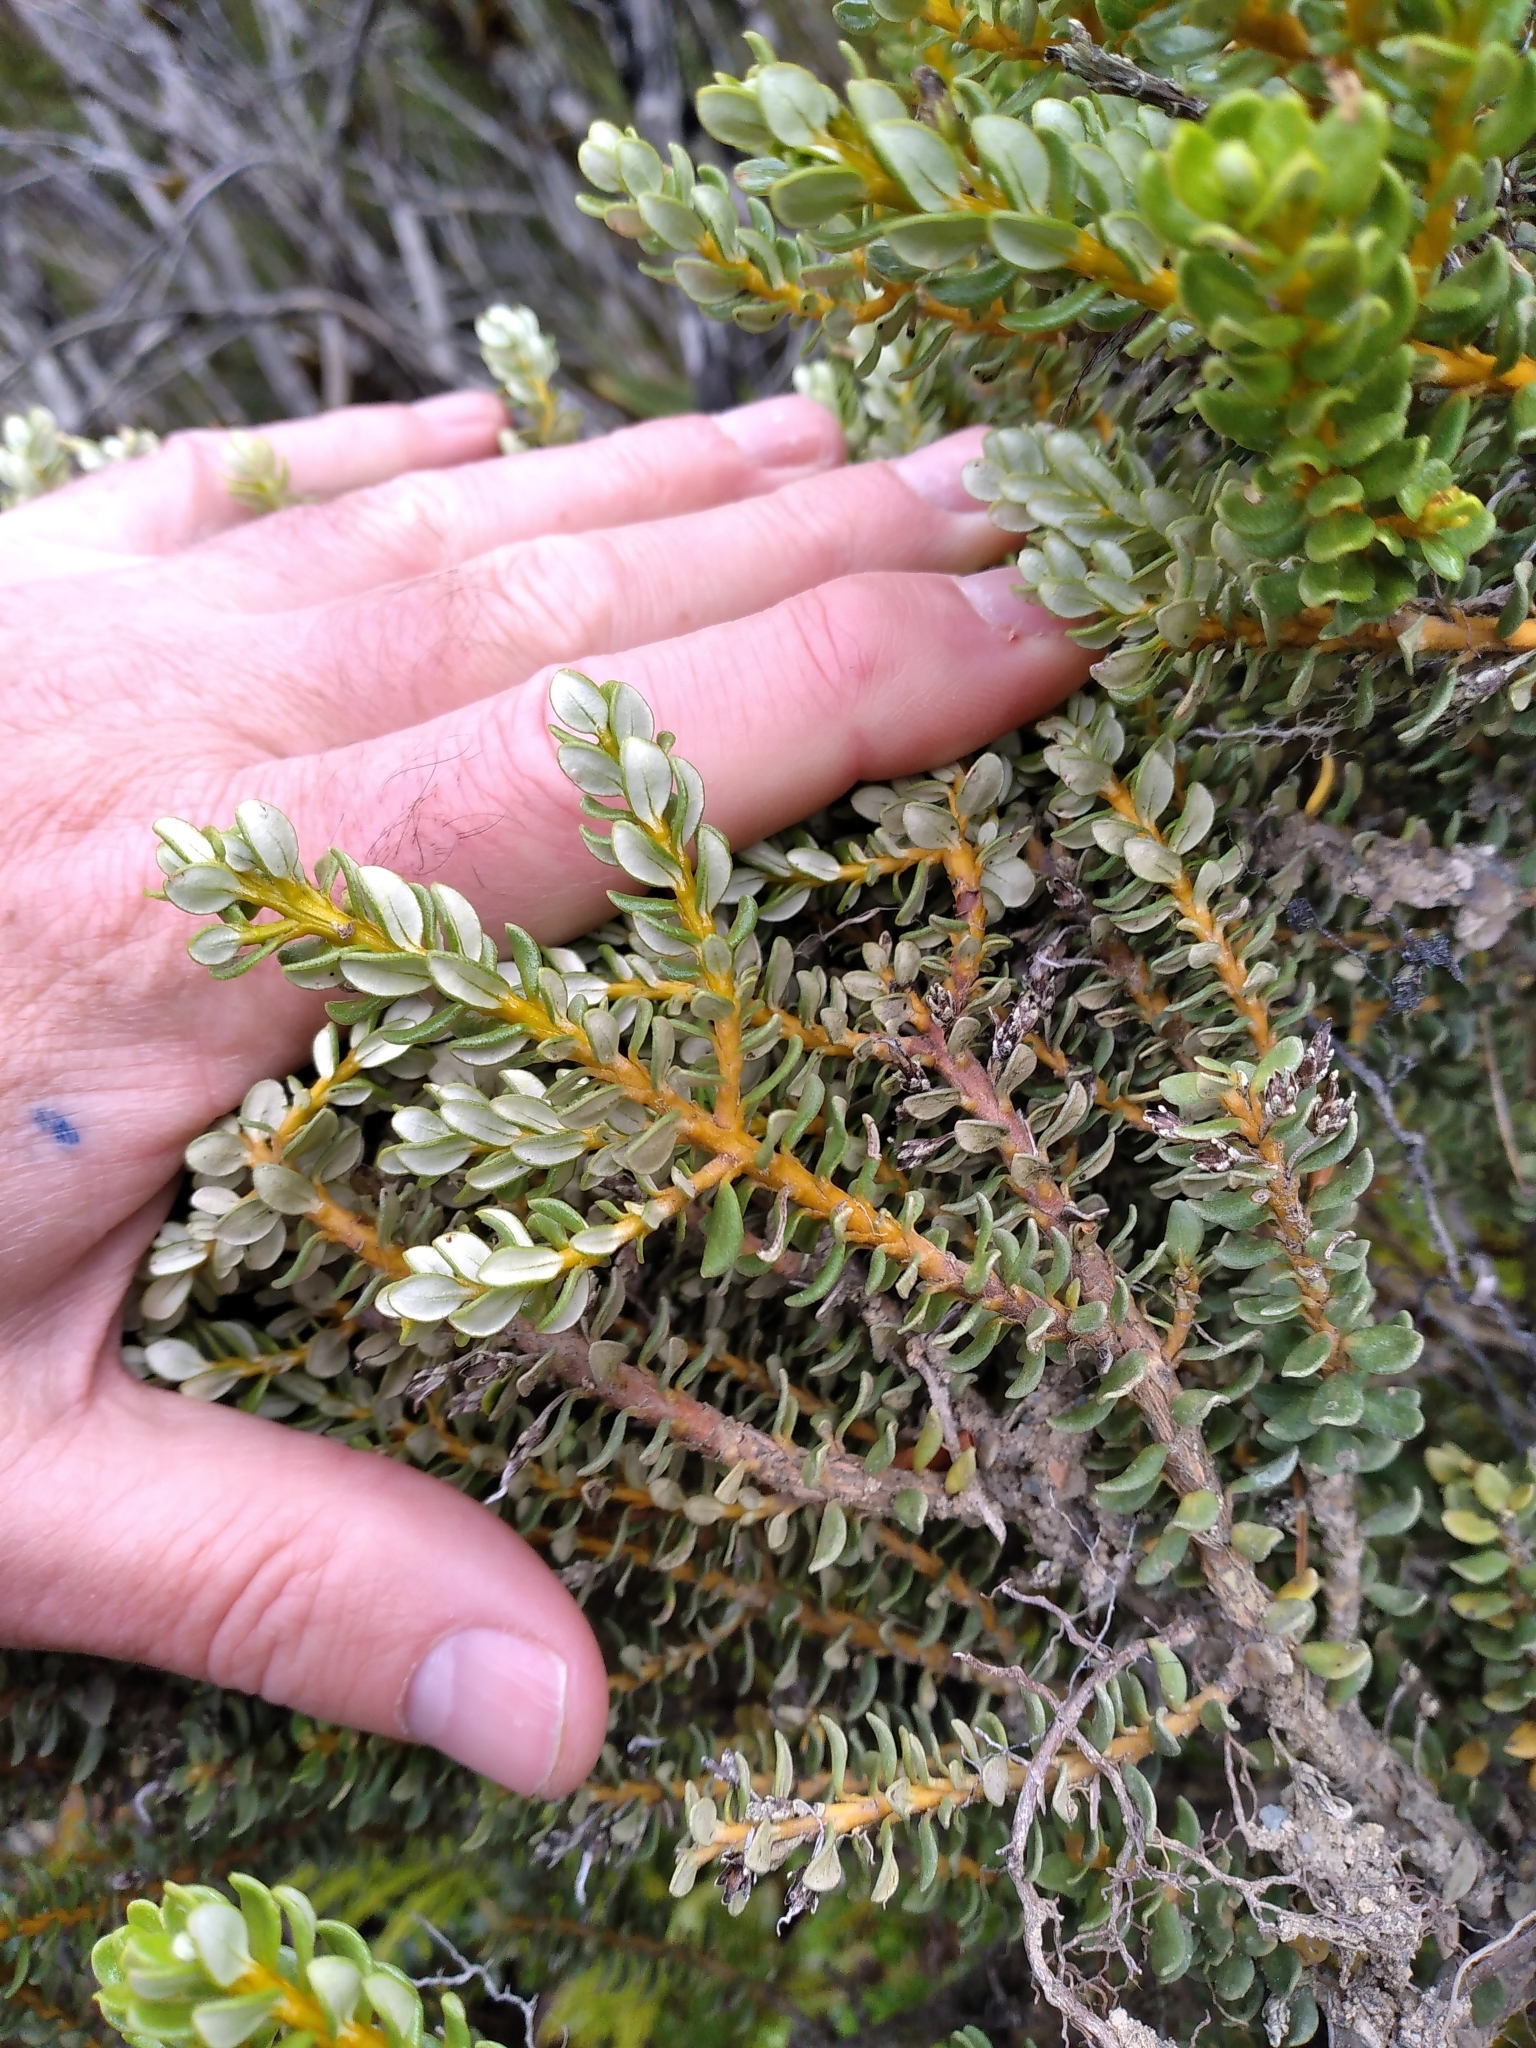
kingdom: Plantae
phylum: Tracheophyta
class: Magnoliopsida
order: Asterales
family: Asteraceae
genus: Olearia
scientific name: Olearia nummularifolia
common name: Sticky daisybush
